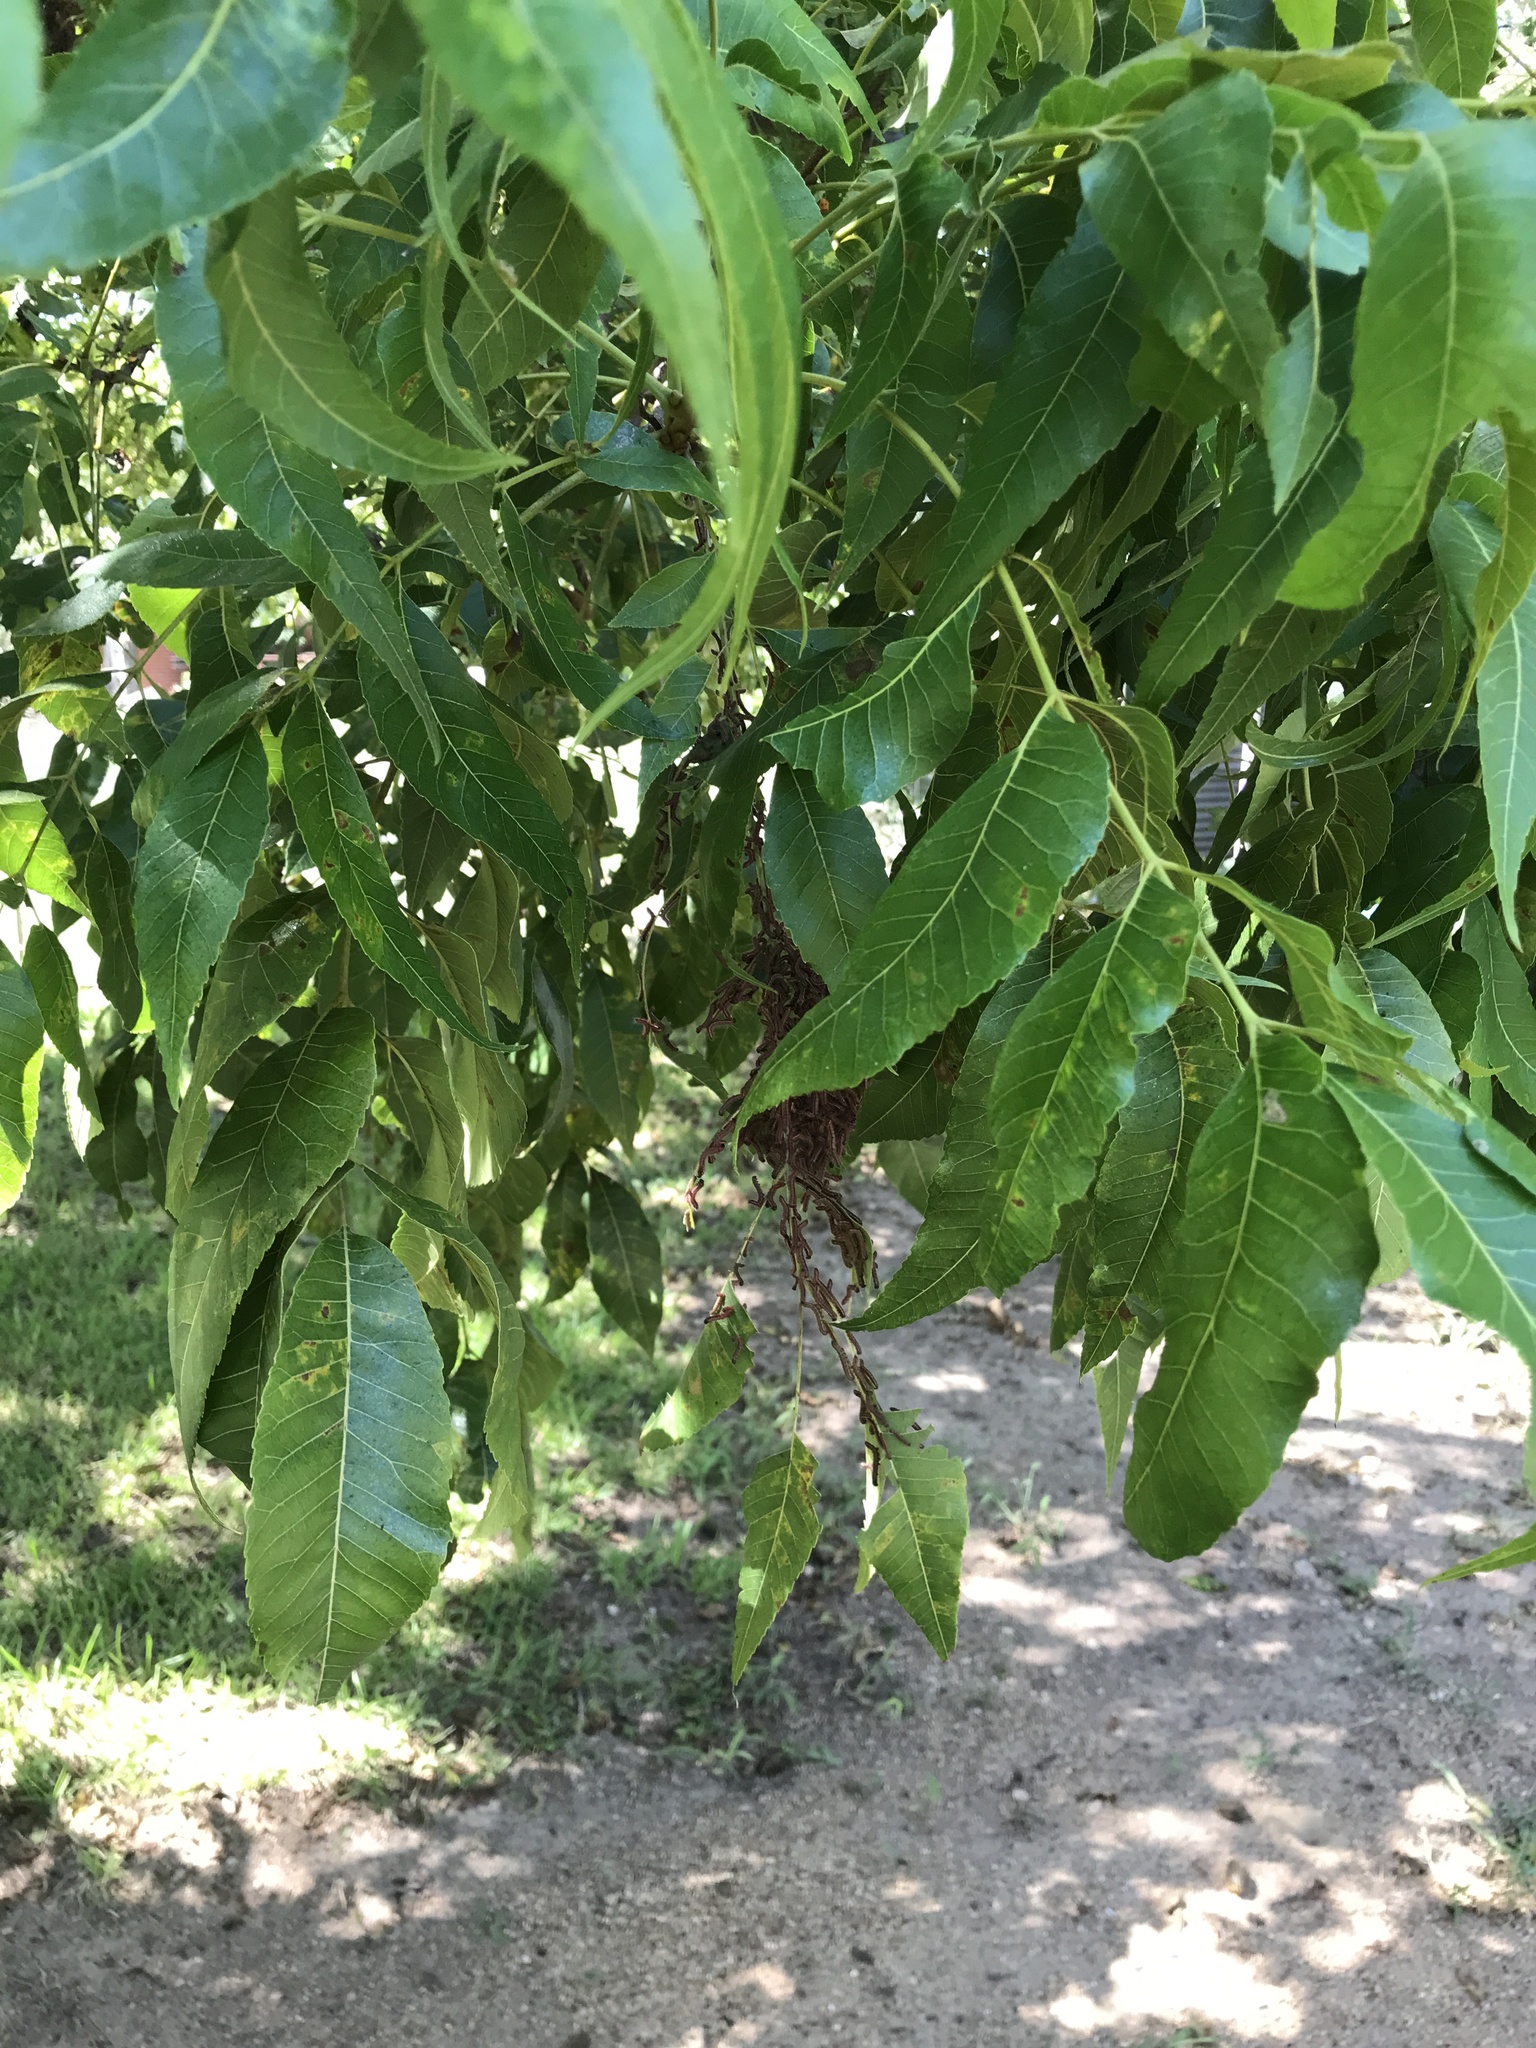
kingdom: Animalia
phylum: Arthropoda
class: Insecta
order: Lepidoptera
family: Notodontidae
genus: Datana
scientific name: Datana integerrima
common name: Walnut caterpillar
